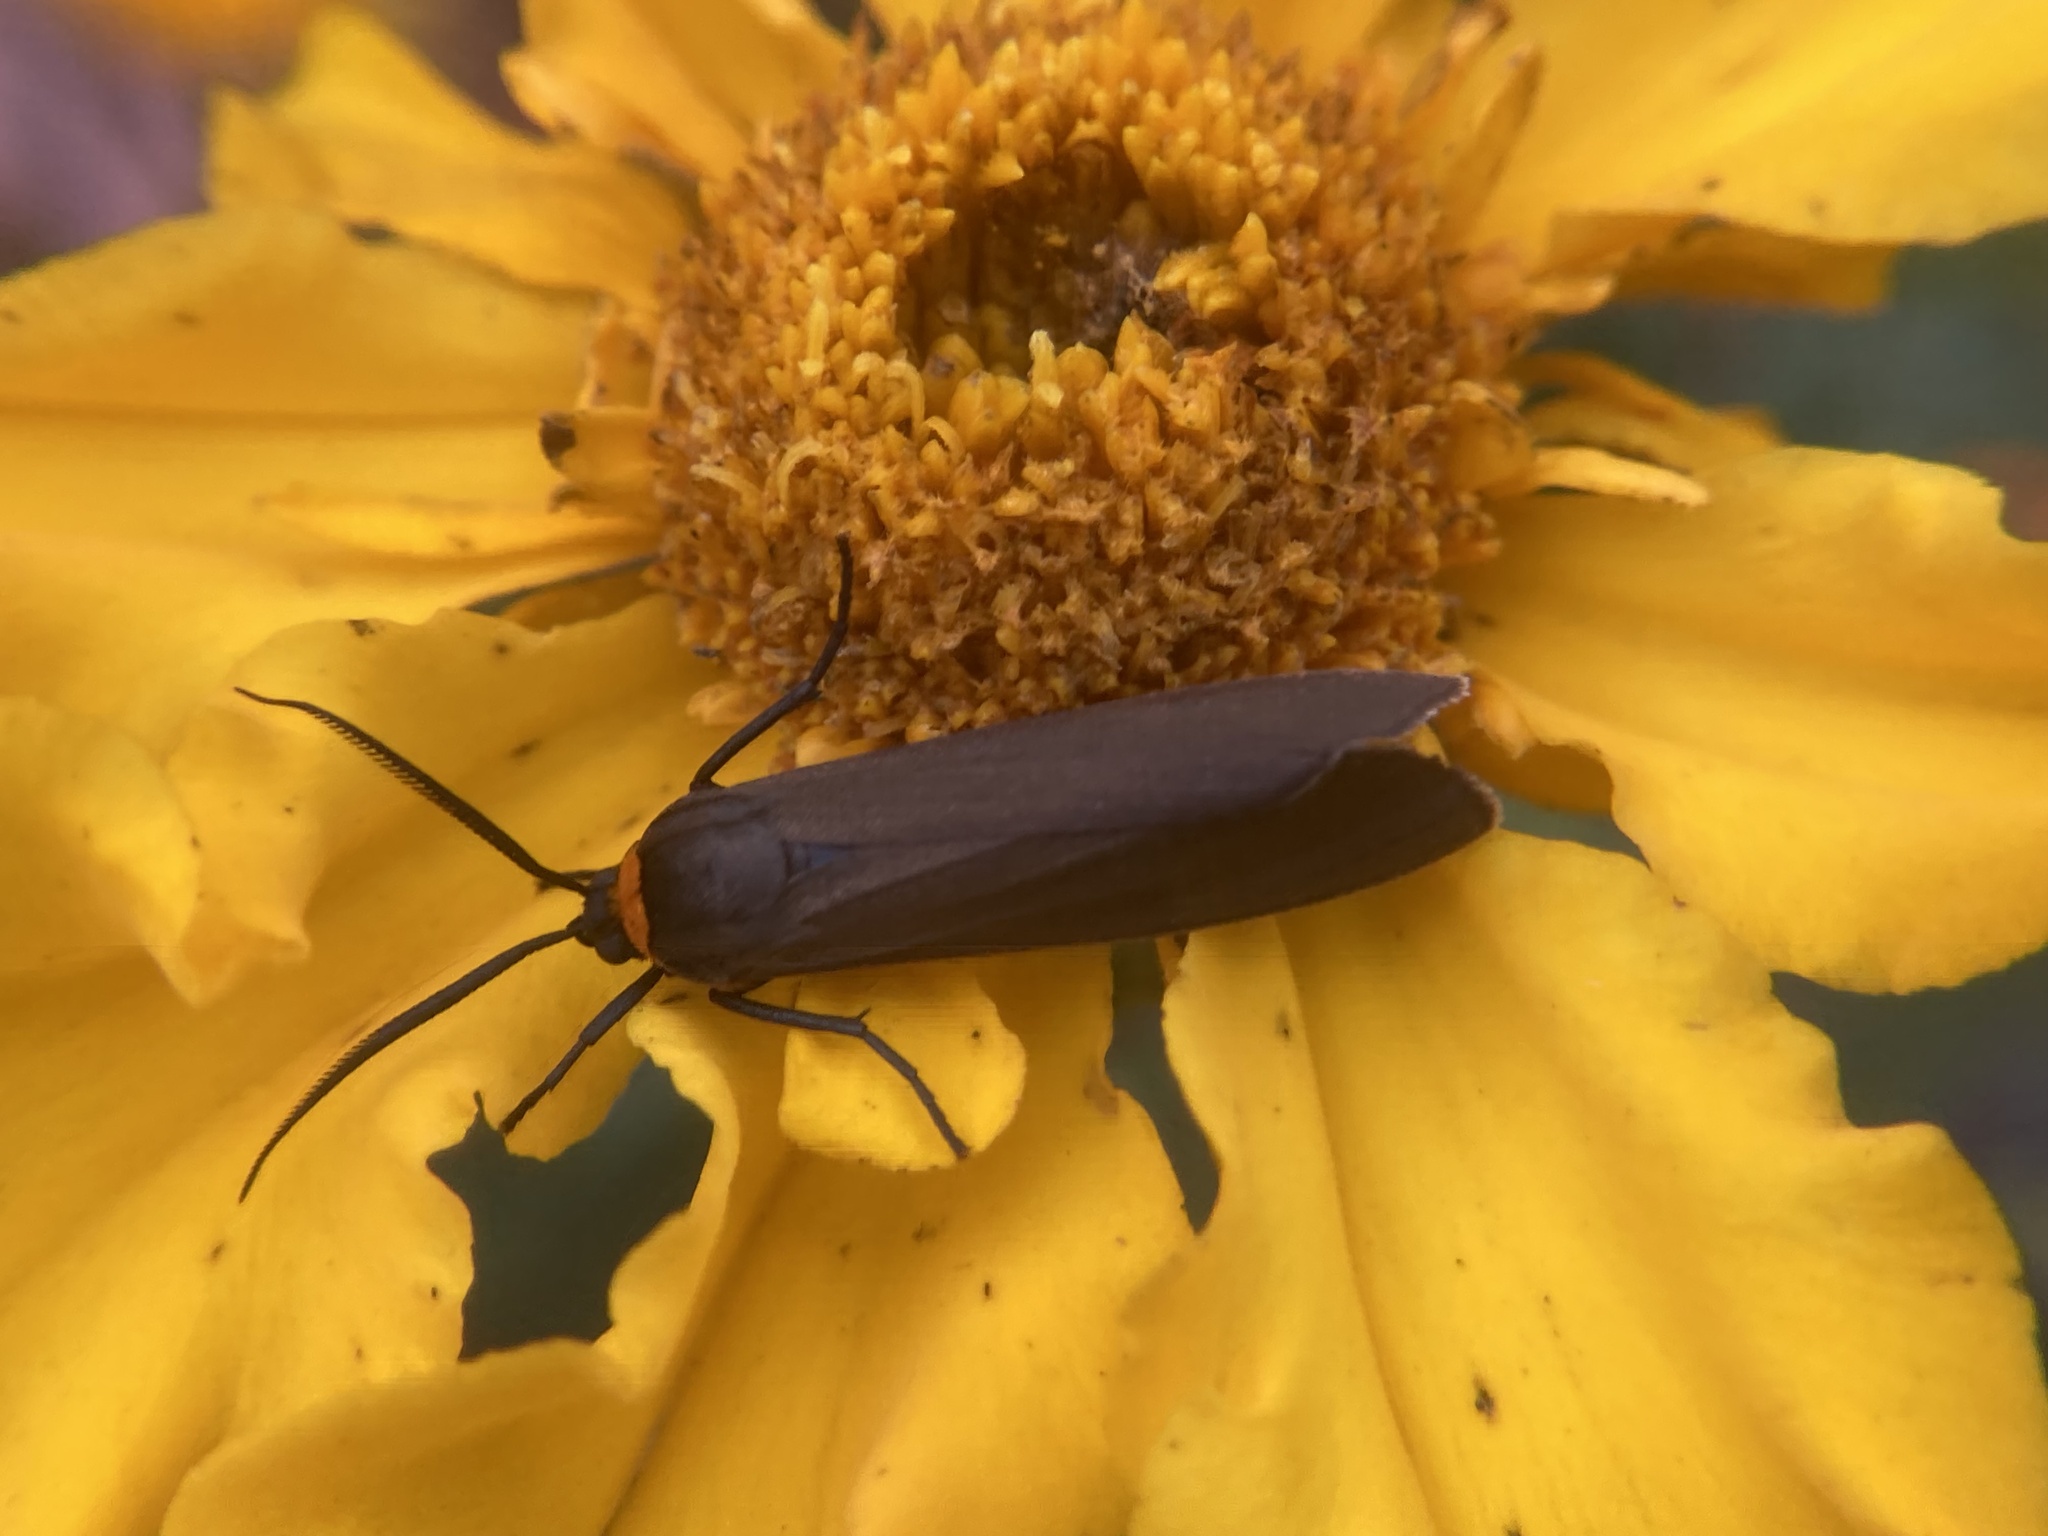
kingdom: Animalia
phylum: Arthropoda
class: Insecta
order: Lepidoptera
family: Erebidae
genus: Cisseps
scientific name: Cisseps fulvicollis
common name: Yellow-collared scape moth
